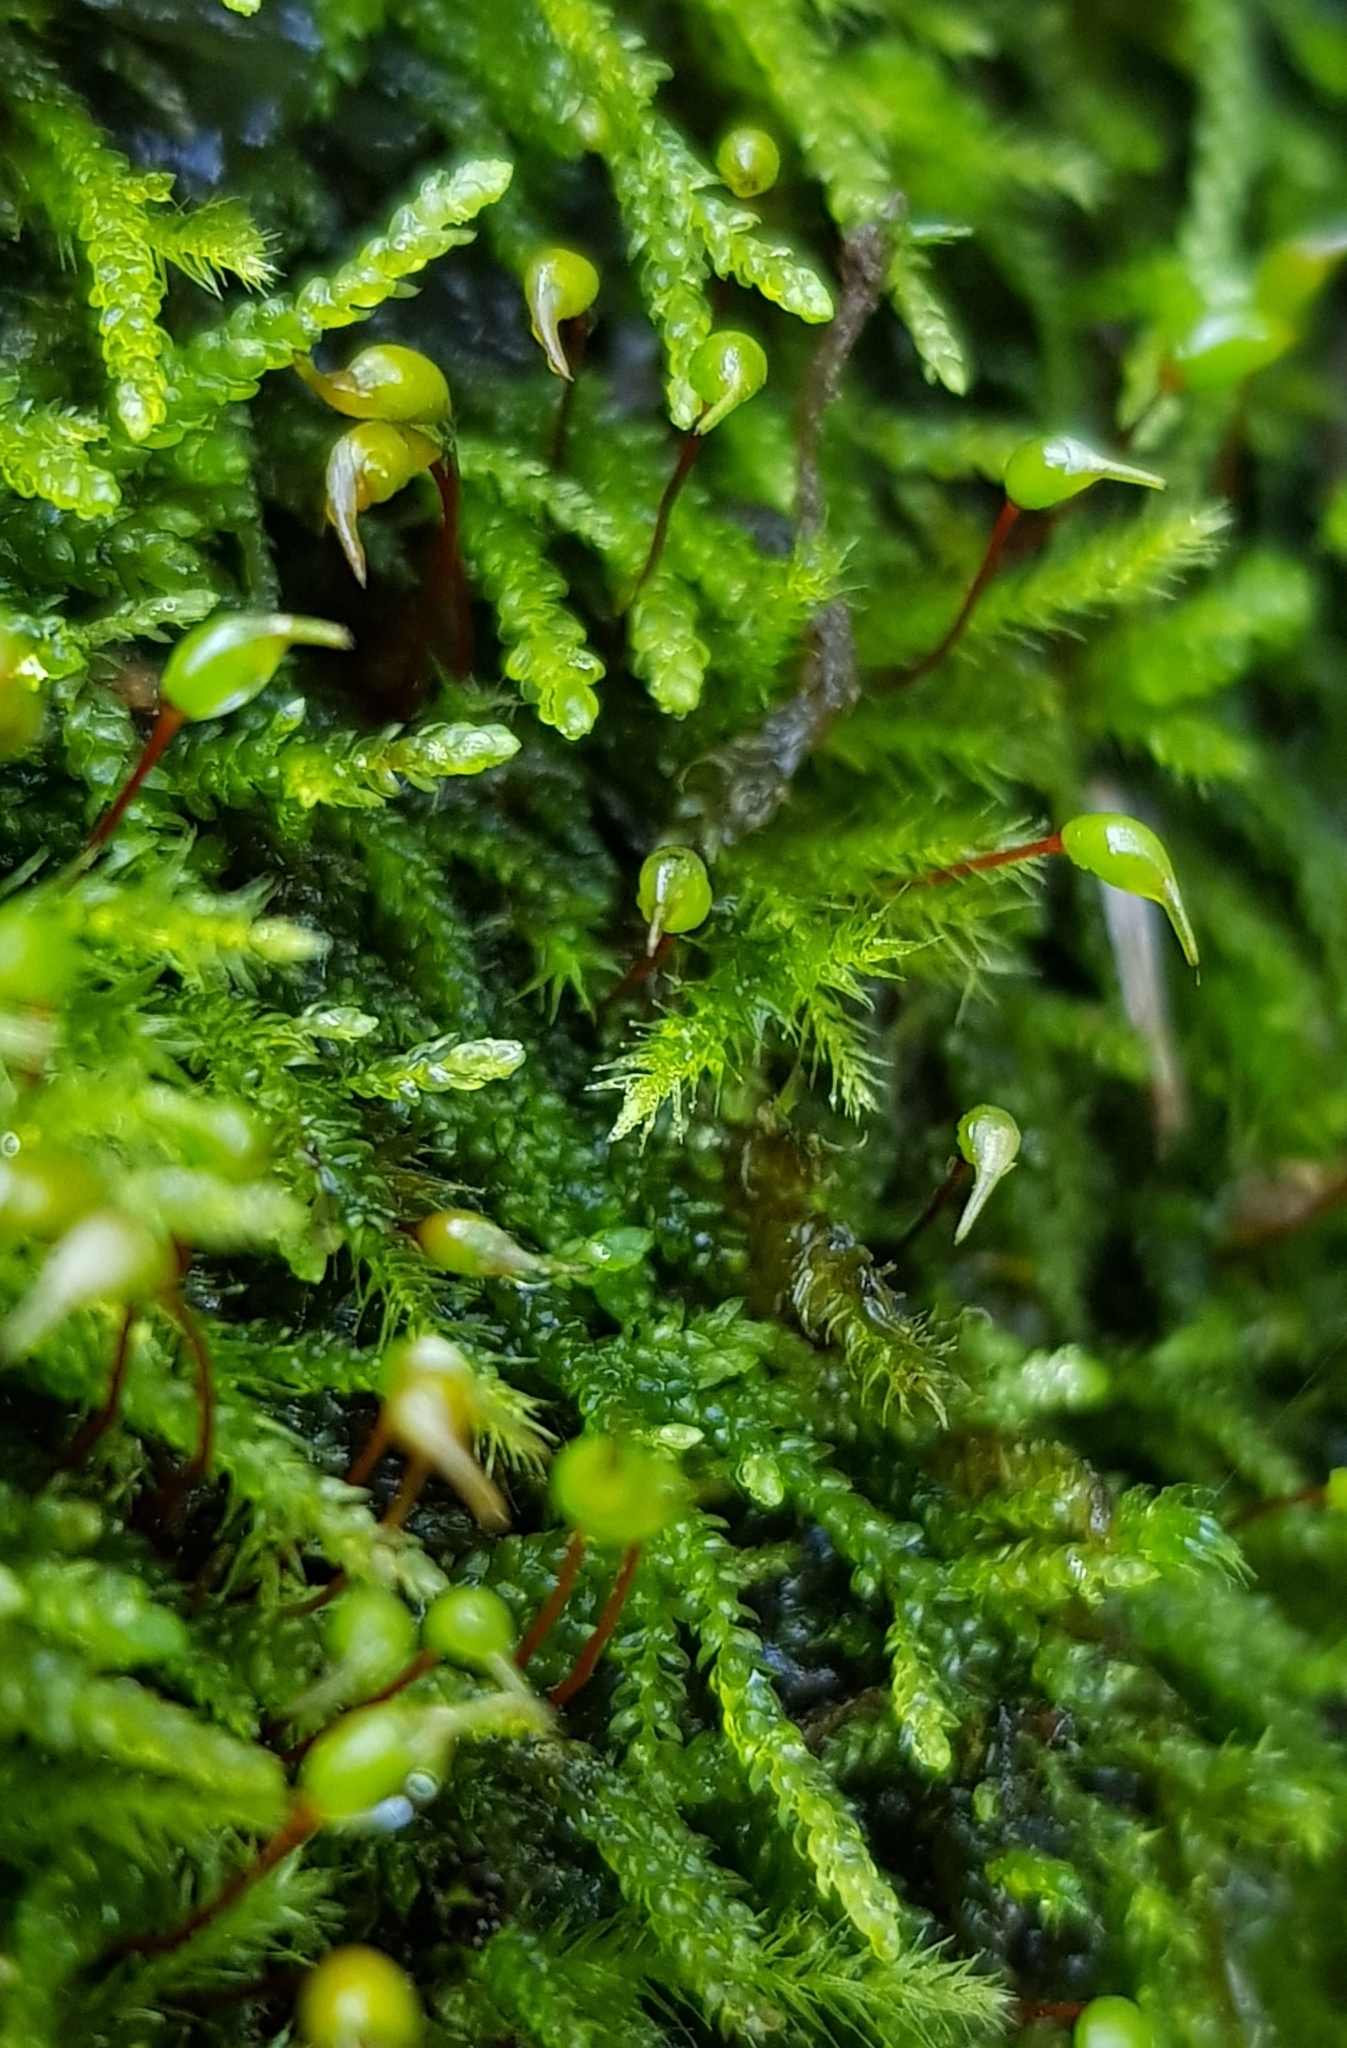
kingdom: Plantae
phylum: Bryophyta
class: Bryopsida
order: Hypnales
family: Brachytheciaceae
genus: Sciuro-hypnum
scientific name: Sciuro-hypnum populeum
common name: Matted feather-moss
